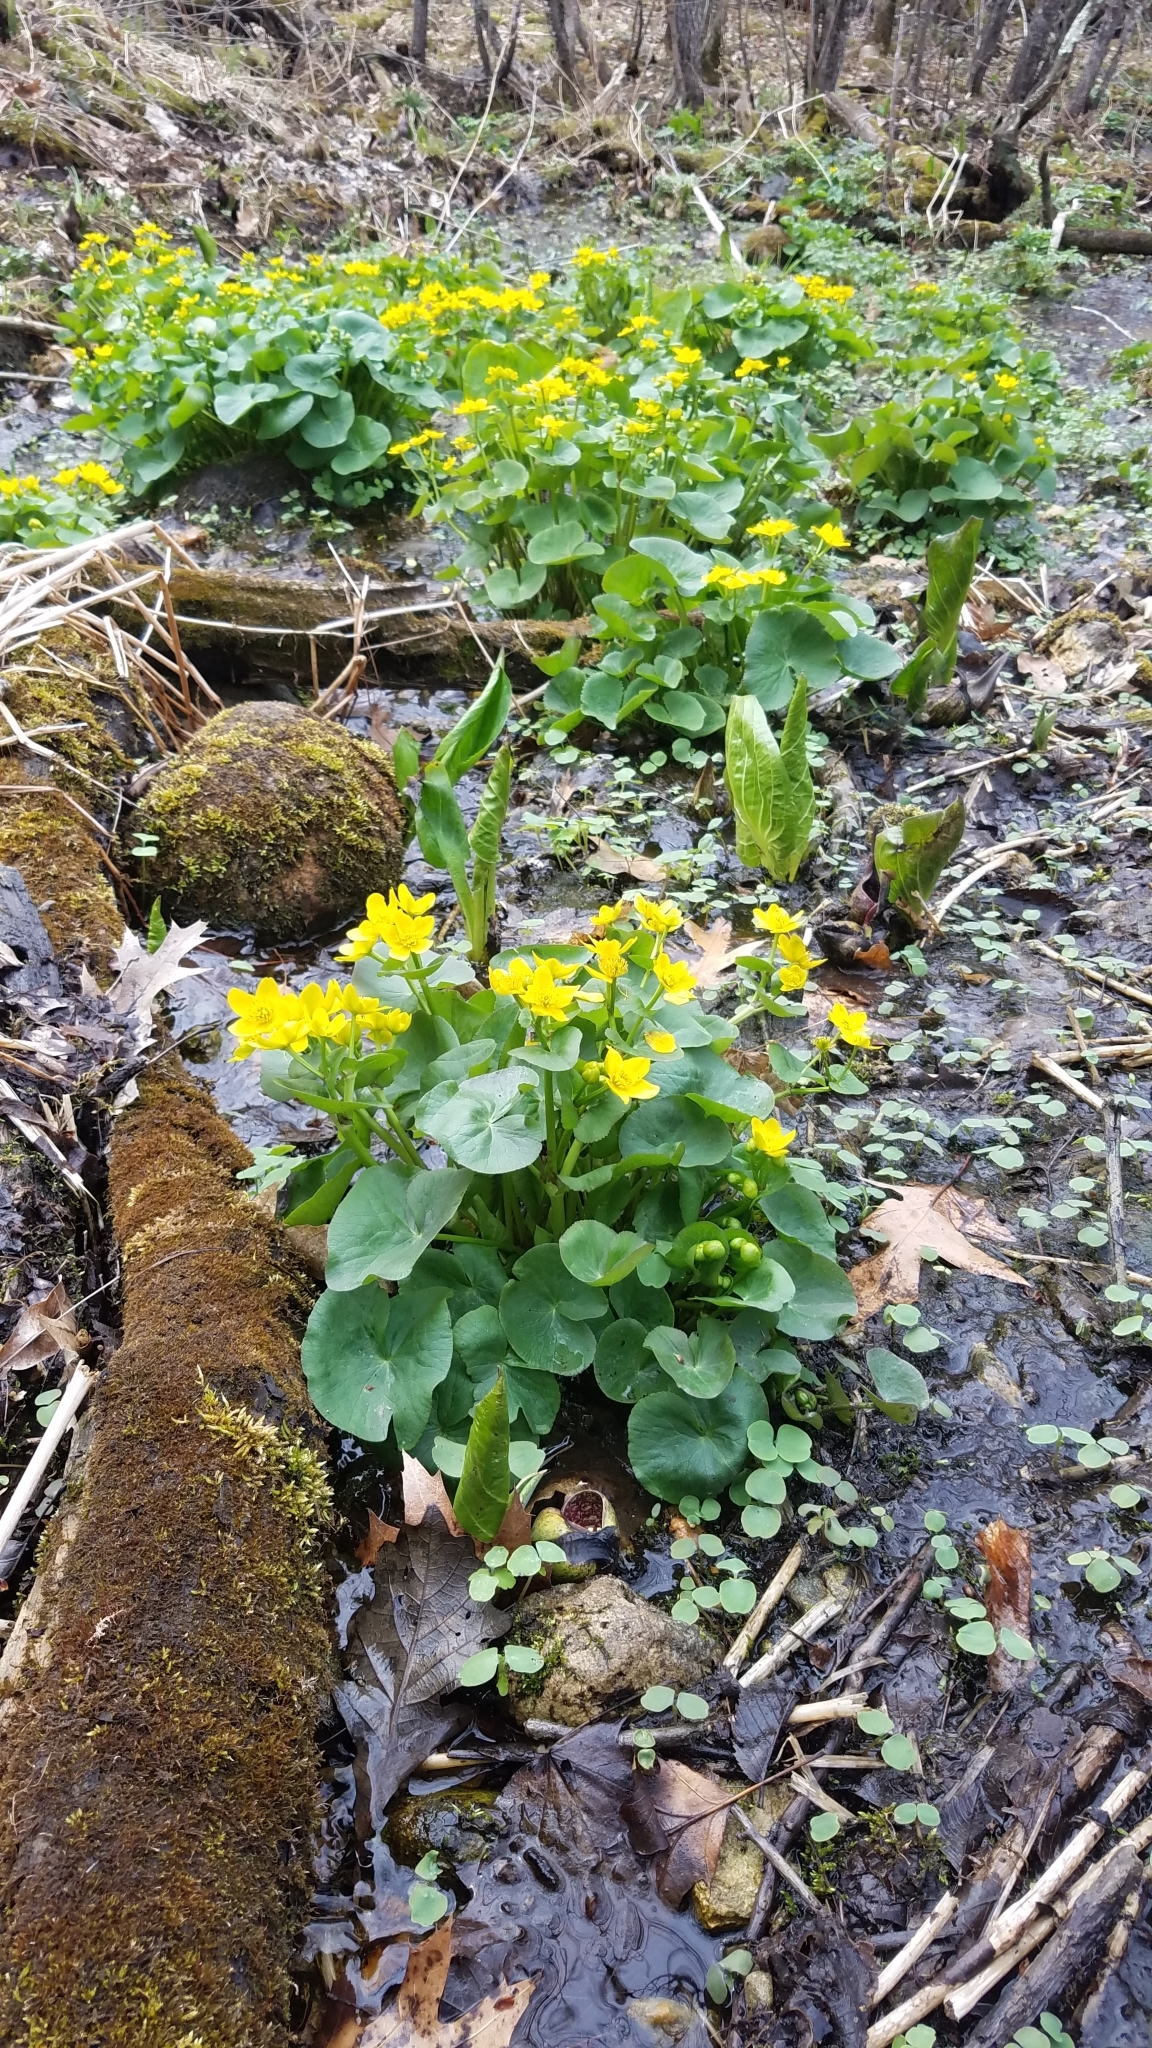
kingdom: Plantae
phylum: Tracheophyta
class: Magnoliopsida
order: Ranunculales
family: Ranunculaceae
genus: Caltha
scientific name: Caltha palustris
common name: Marsh marigold
